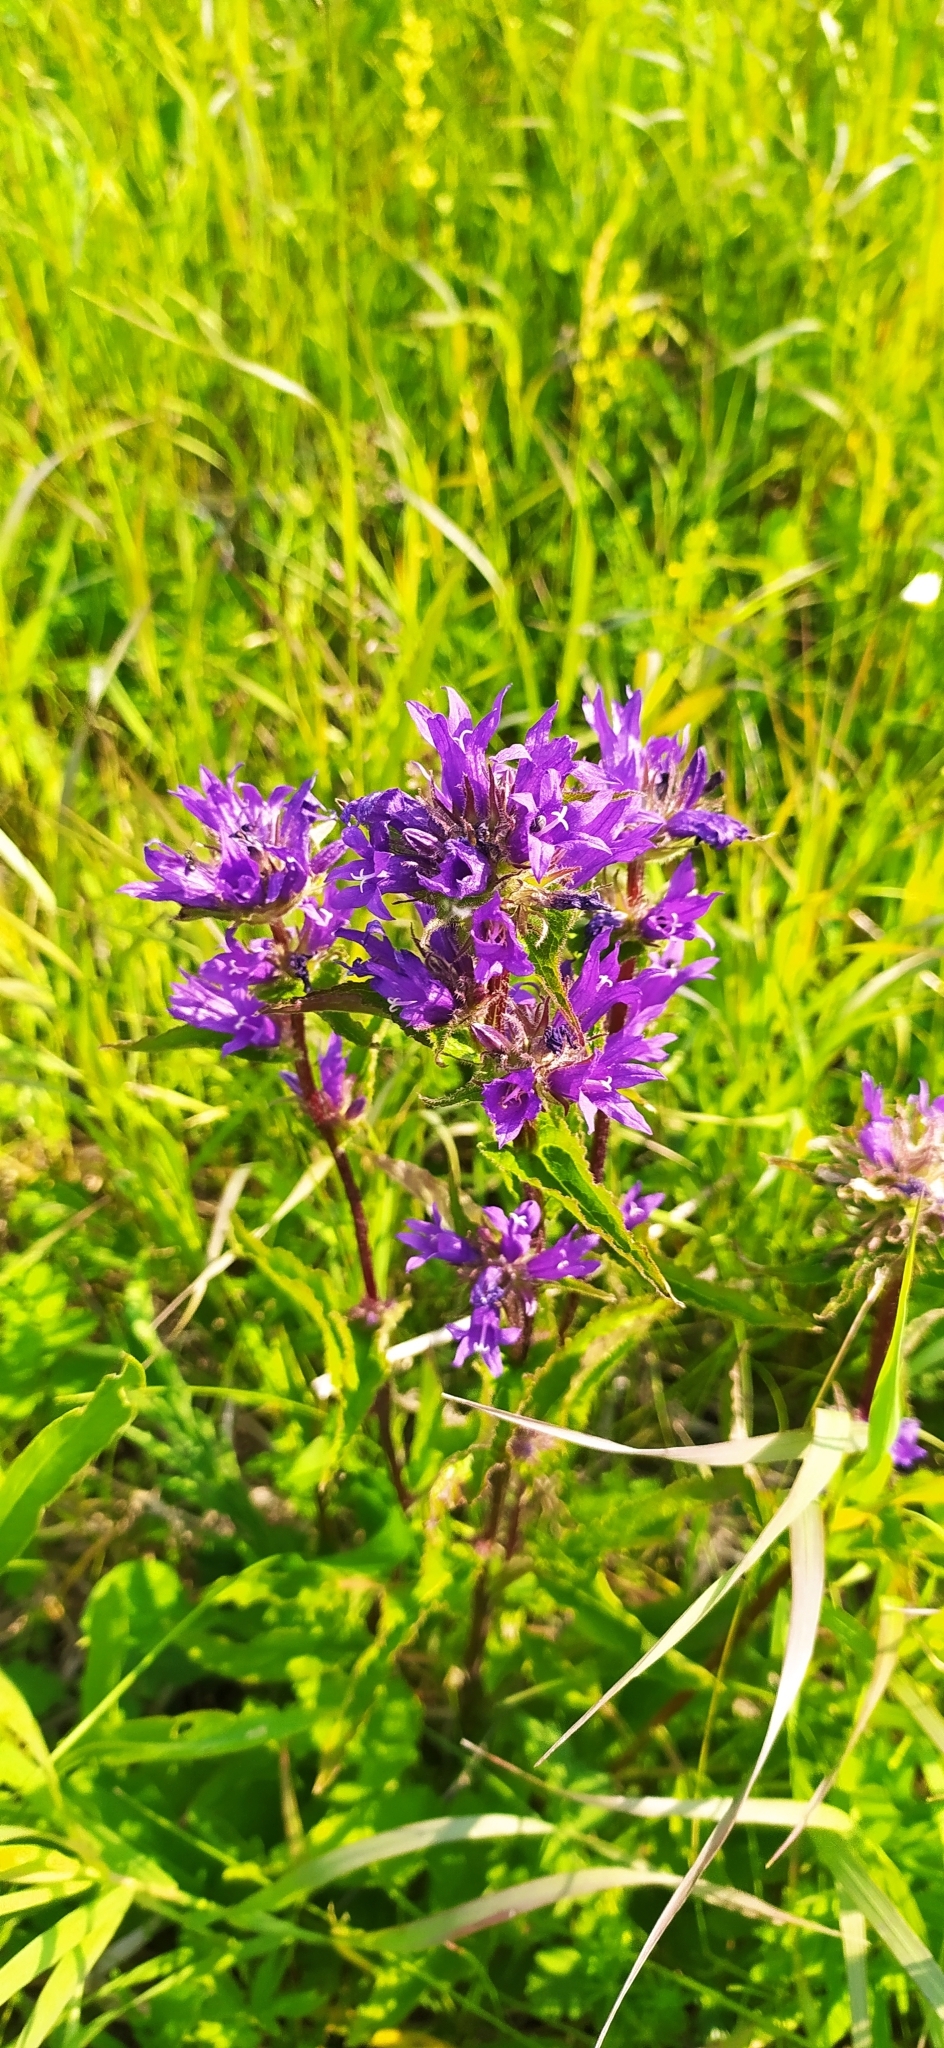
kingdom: Plantae
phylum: Tracheophyta
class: Magnoliopsida
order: Asterales
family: Campanulaceae
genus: Campanula
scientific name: Campanula glomerata
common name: Clustered bellflower
